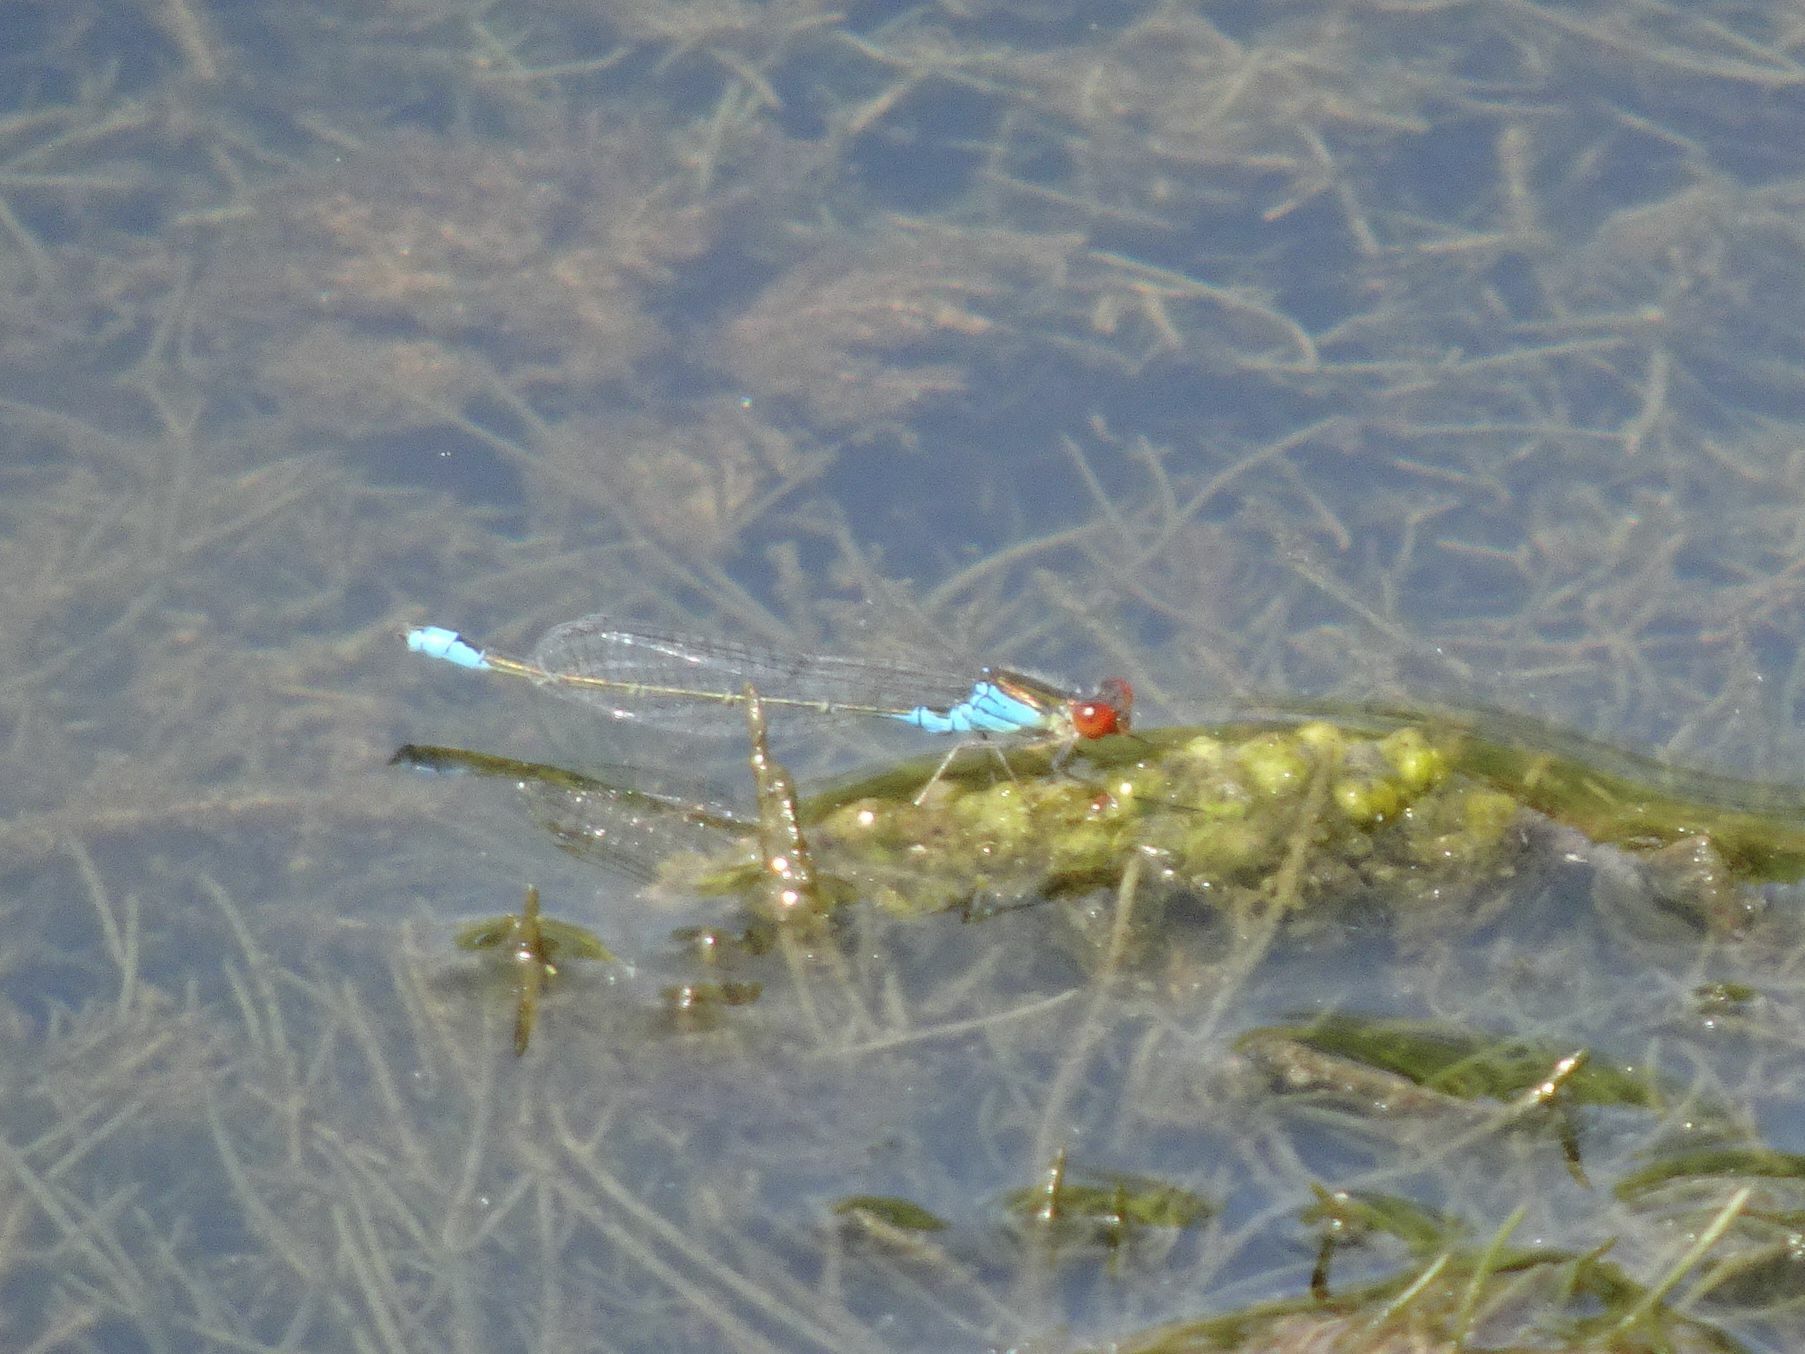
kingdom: Animalia
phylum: Arthropoda
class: Insecta
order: Odonata
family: Coenagrionidae
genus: Erythromma
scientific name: Erythromma viridulum
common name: Small red-eyed damselfly
